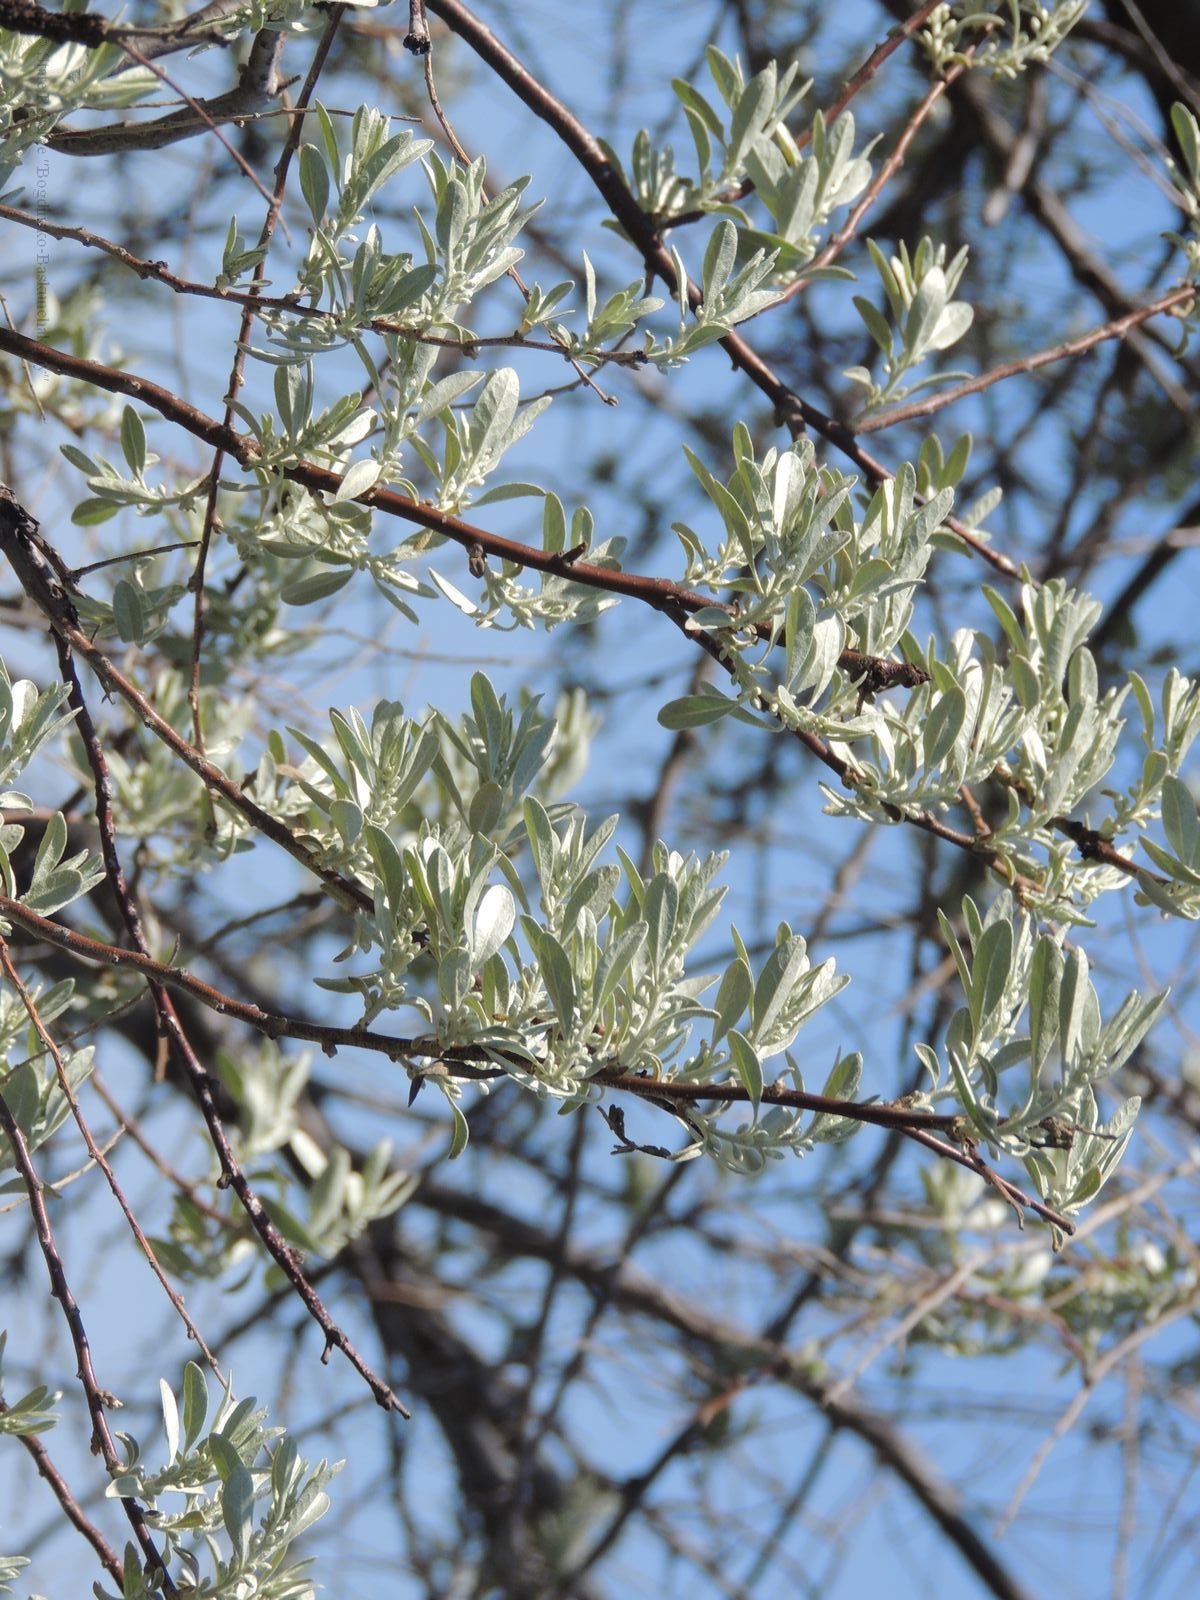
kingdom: Plantae
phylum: Tracheophyta
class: Magnoliopsida
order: Rosales
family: Elaeagnaceae
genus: Elaeagnus
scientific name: Elaeagnus angustifolia
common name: Russian olive
